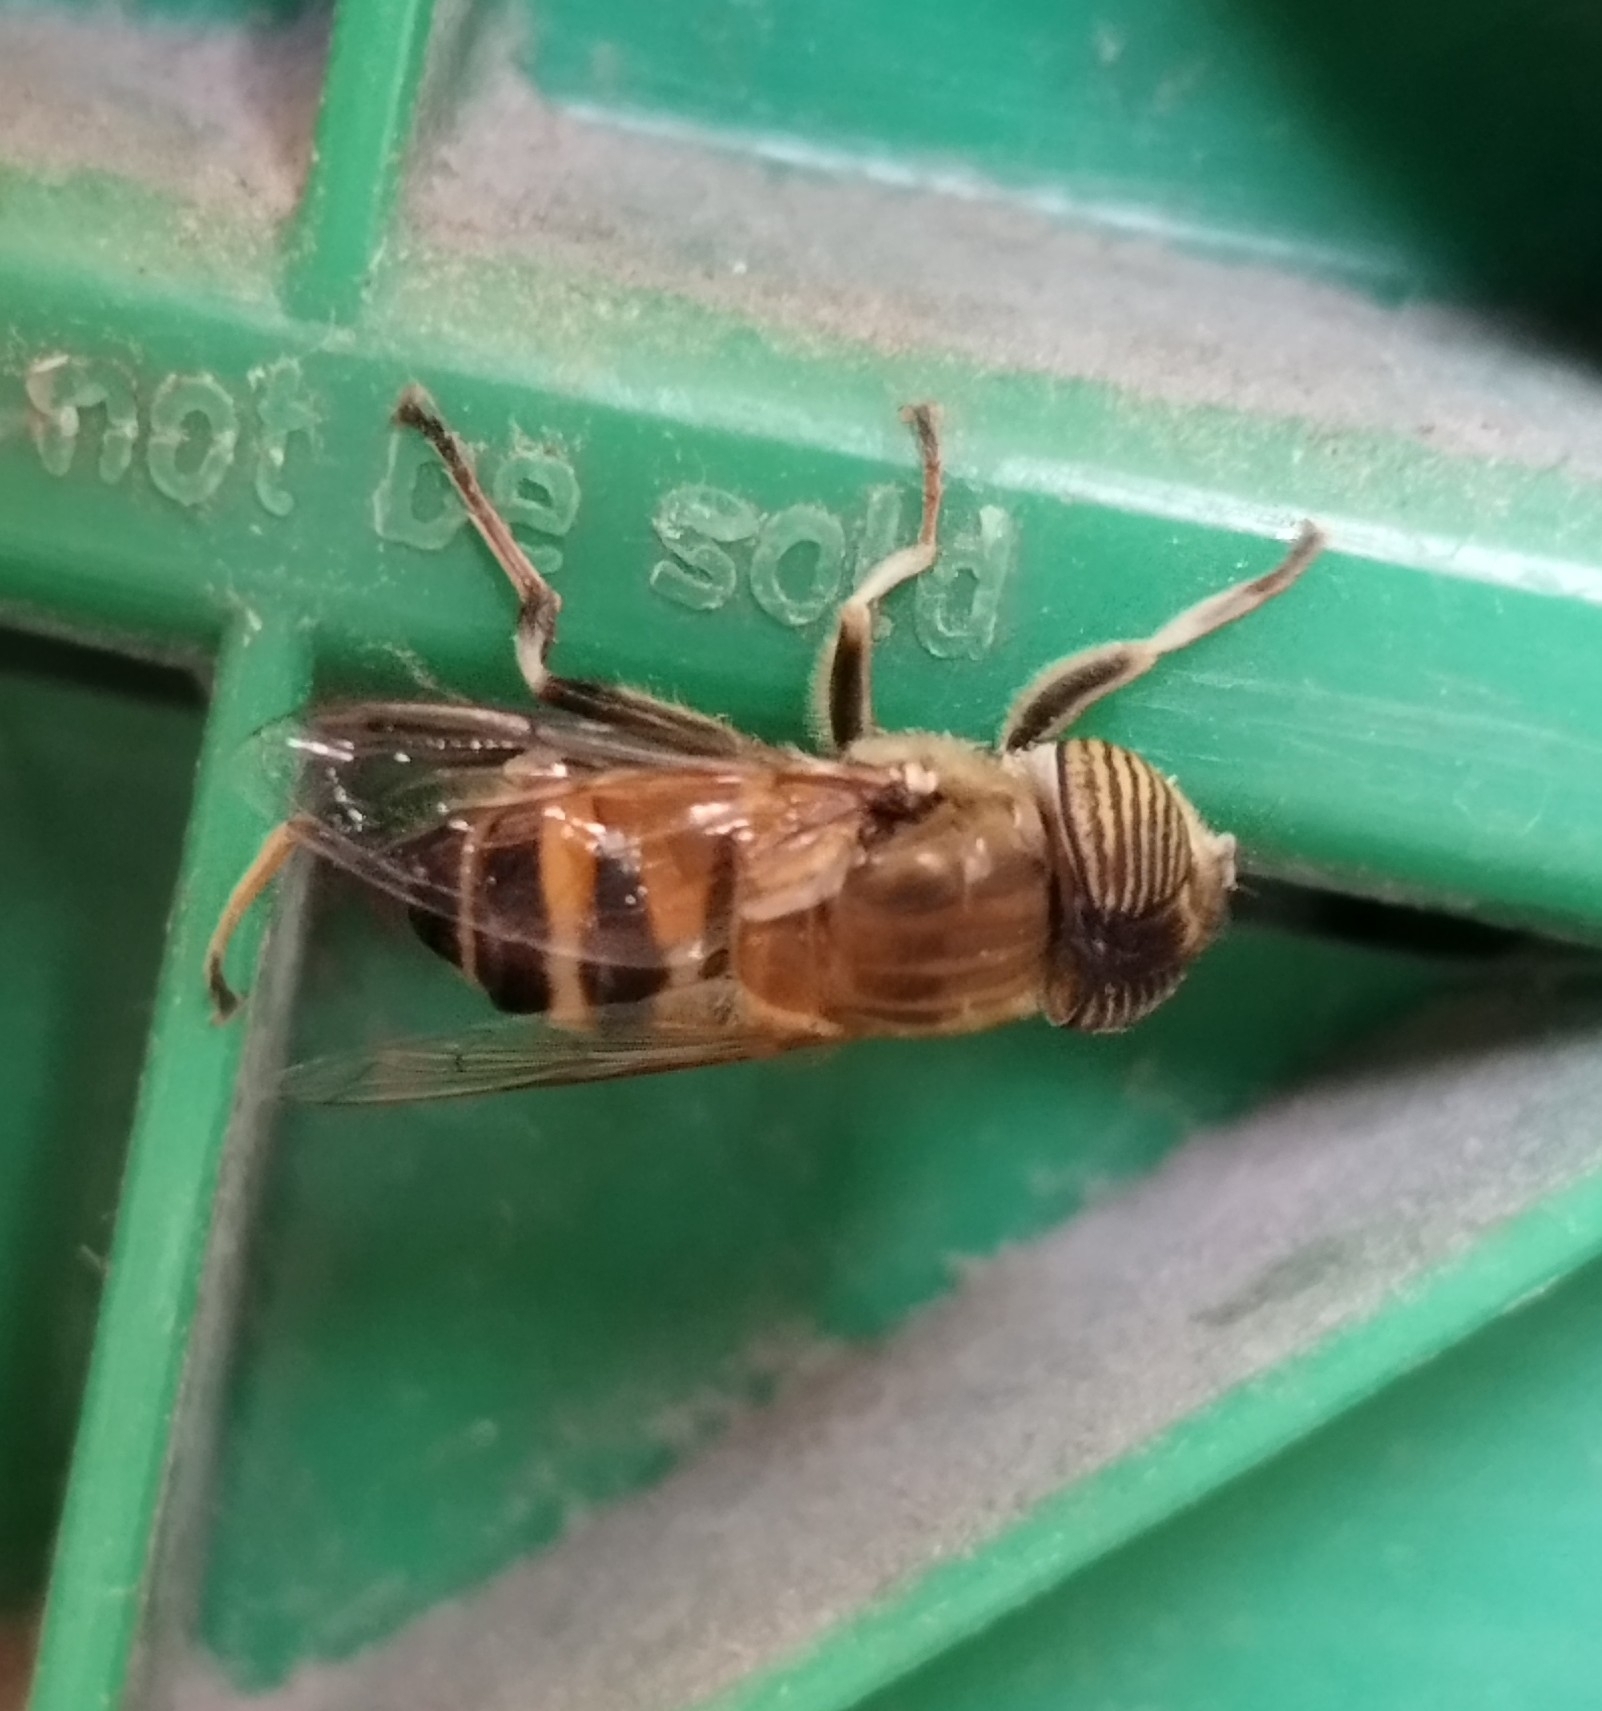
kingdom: Animalia
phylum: Arthropoda
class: Insecta
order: Diptera
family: Syrphidae
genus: Eristalinus
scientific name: Eristalinus taeniops
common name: Syrphid fly
